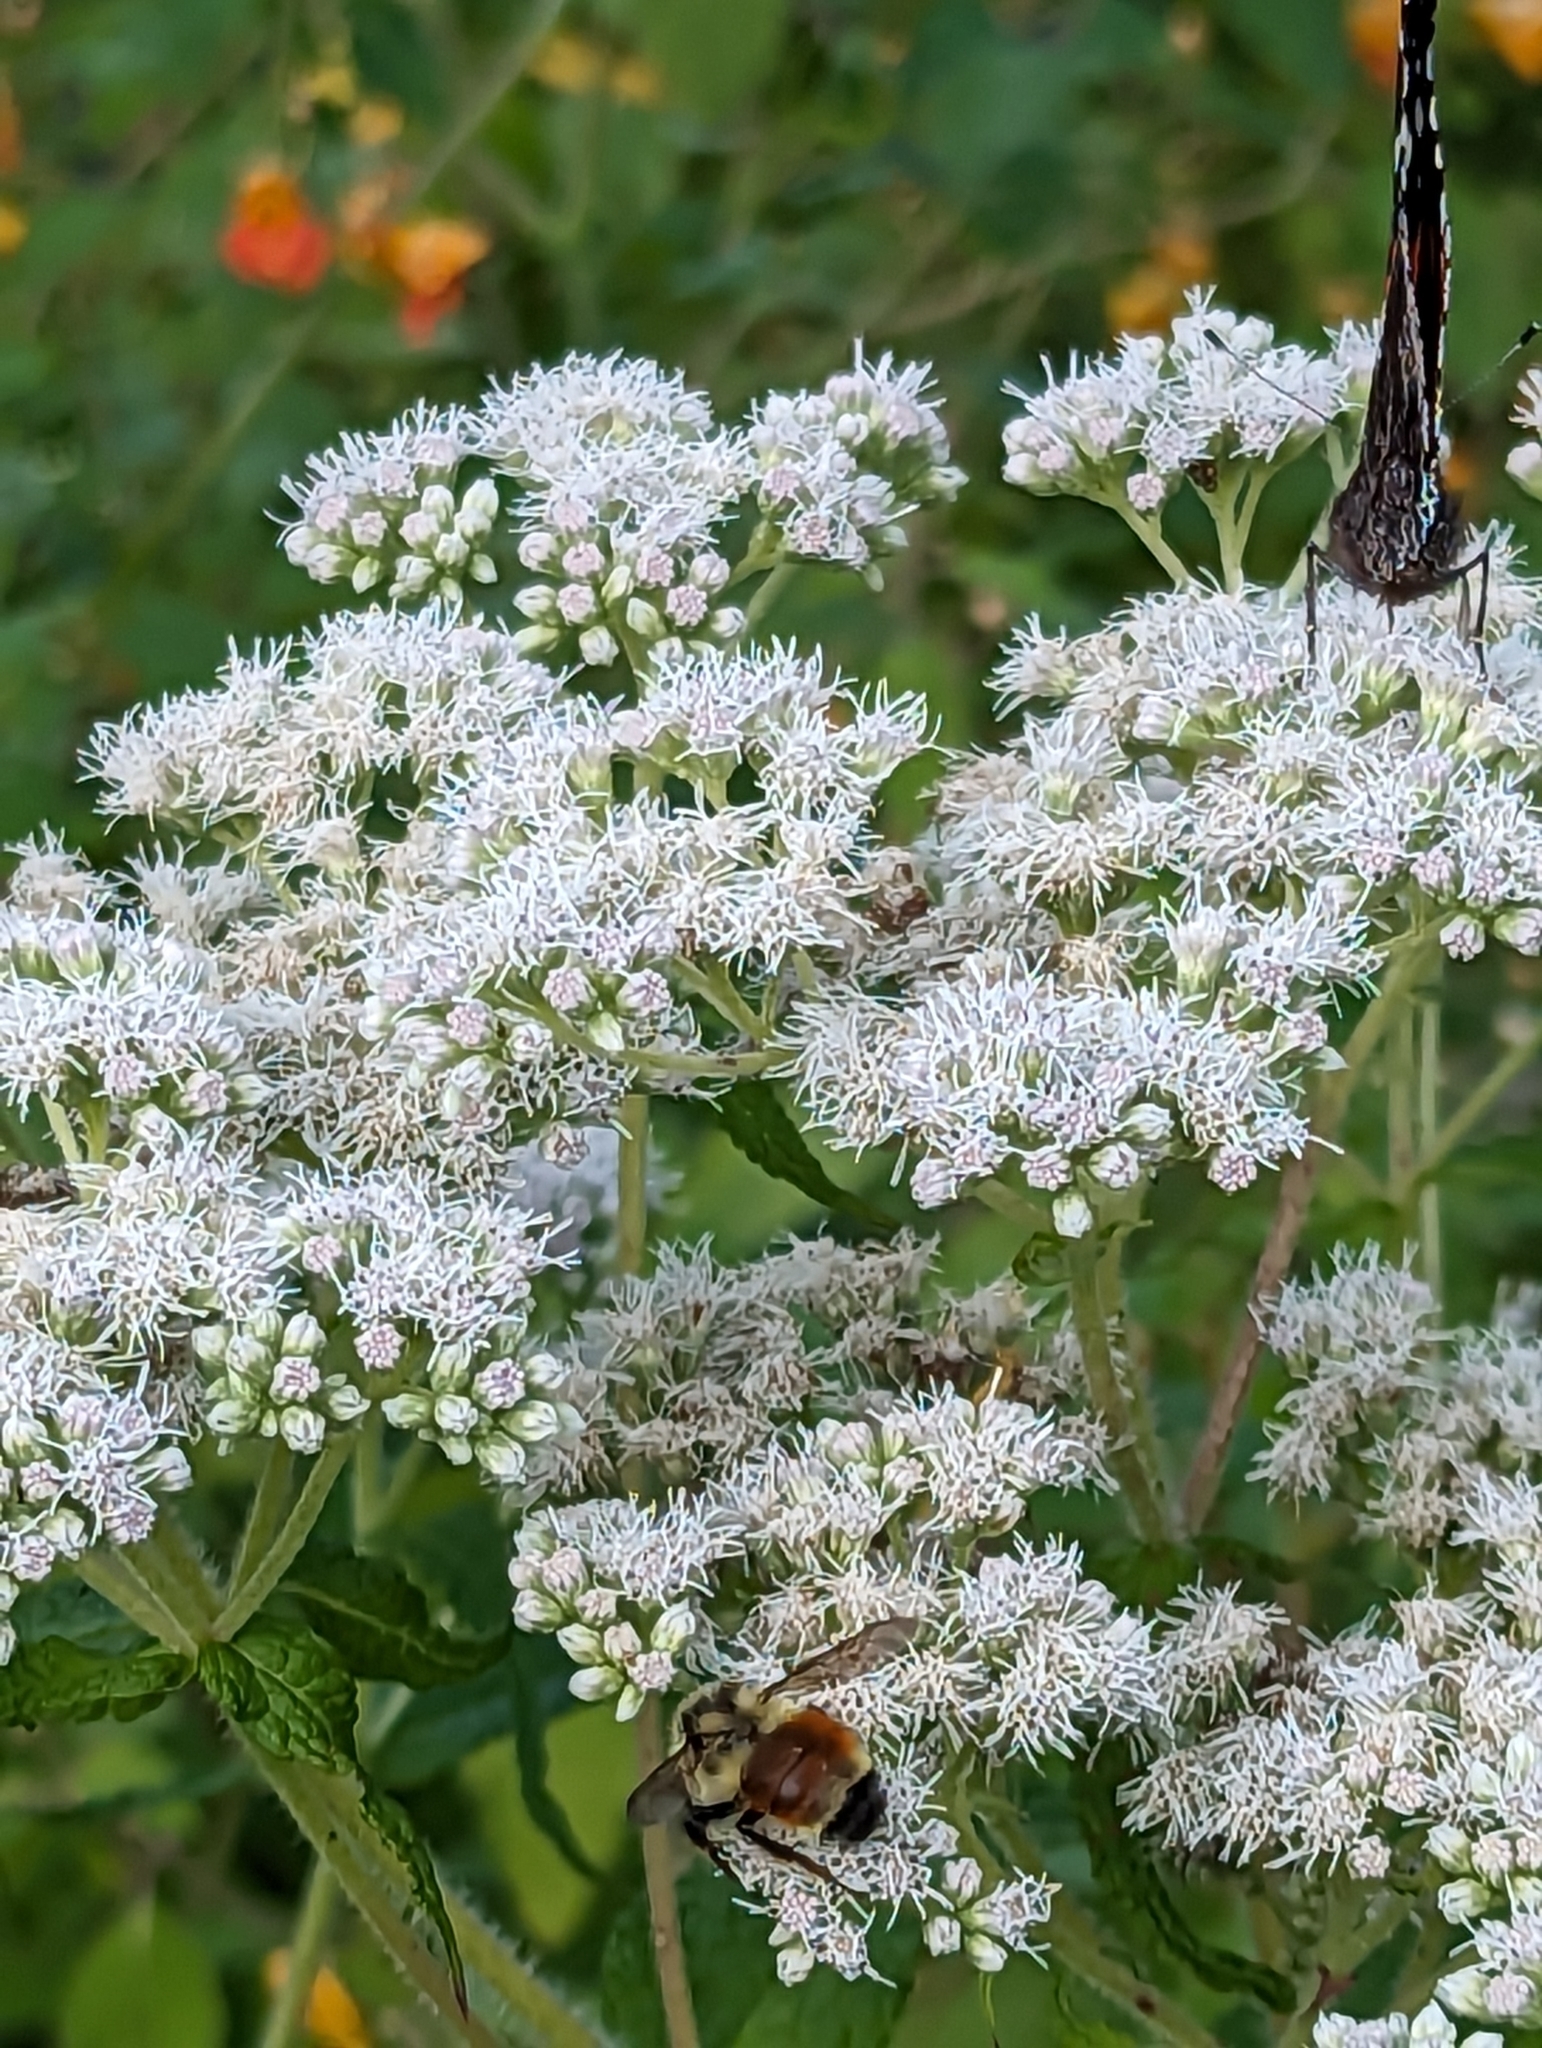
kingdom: Animalia
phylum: Arthropoda
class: Insecta
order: Hymenoptera
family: Apidae
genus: Bombus
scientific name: Bombus ternarius
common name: Tri-colored bumble bee
